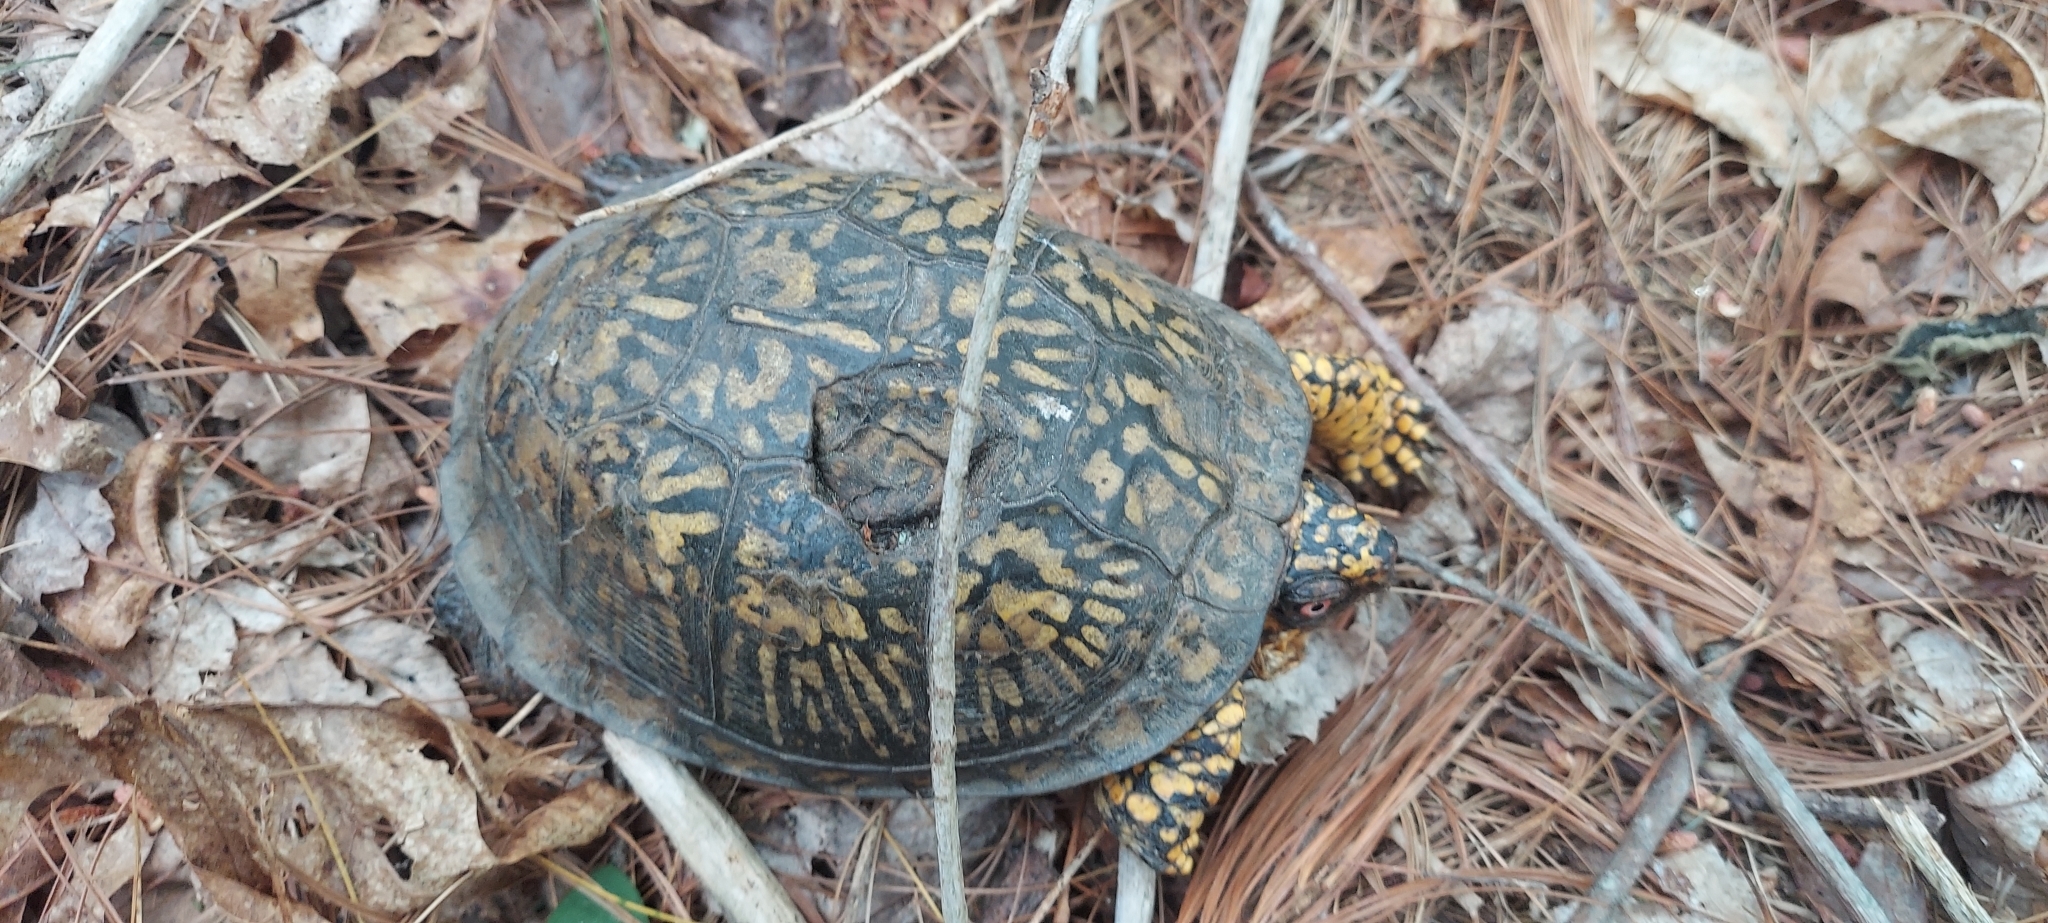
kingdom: Animalia
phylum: Chordata
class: Testudines
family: Emydidae
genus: Terrapene
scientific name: Terrapene carolina
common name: Common box turtle
